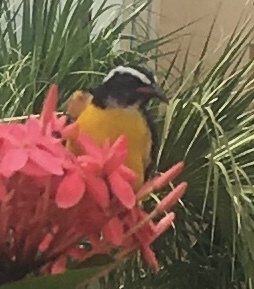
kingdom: Animalia
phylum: Chordata
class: Aves
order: Passeriformes
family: Thraupidae
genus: Coereba
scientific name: Coereba flaveola
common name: Bananaquit
